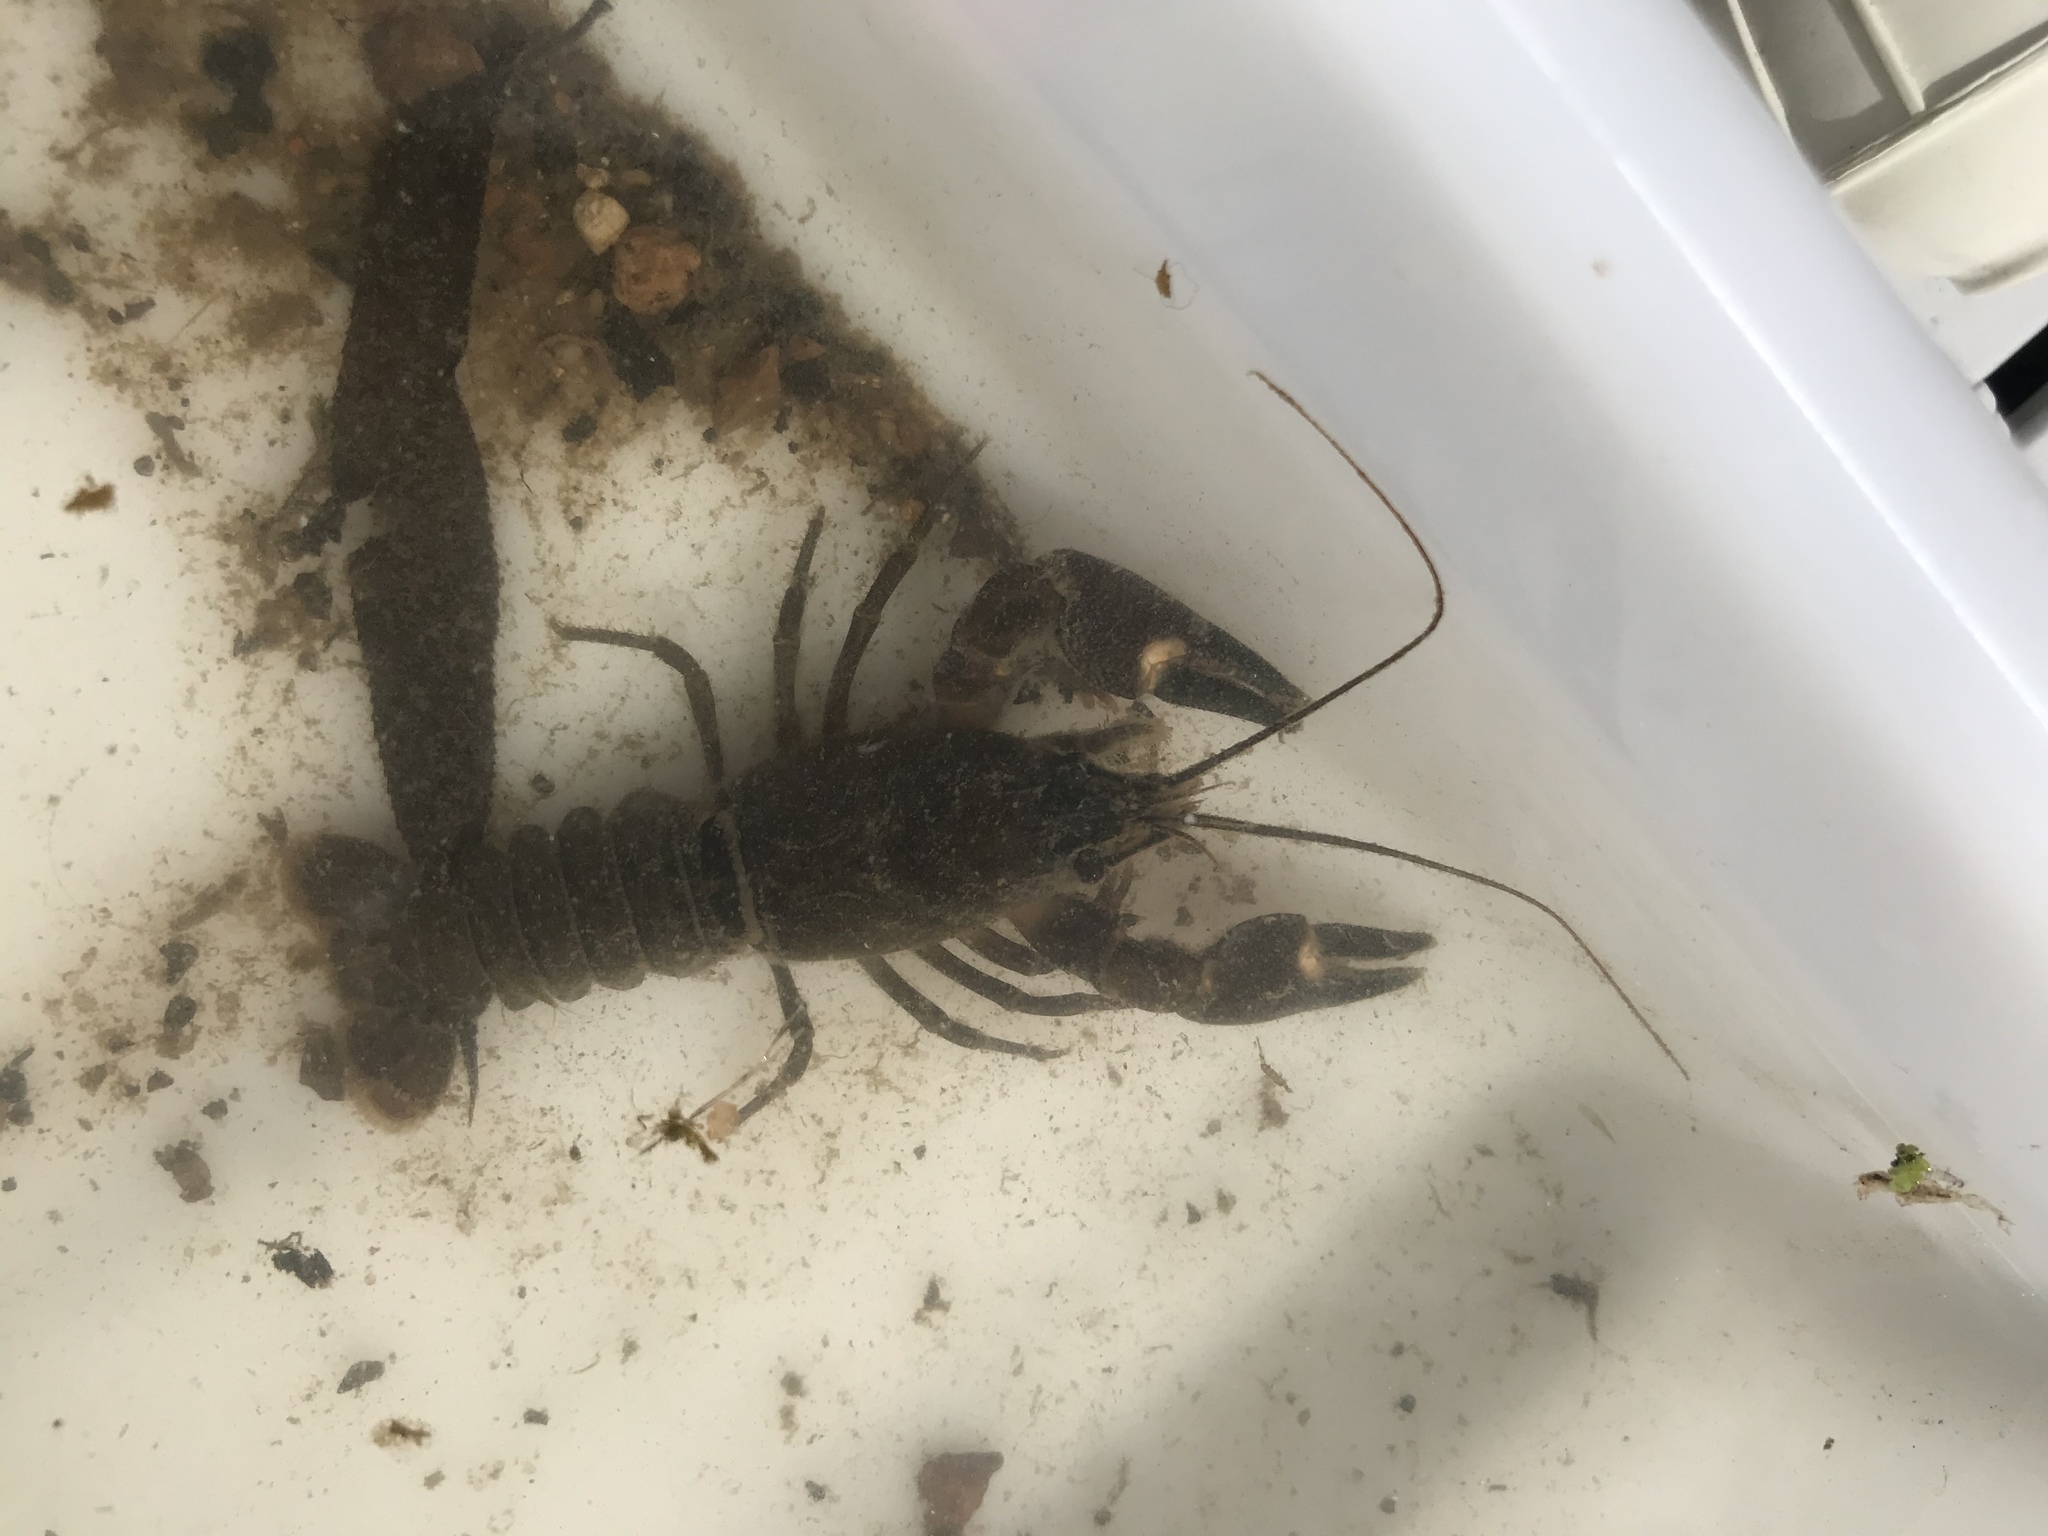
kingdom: Animalia
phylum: Arthropoda
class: Malacostraca
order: Decapoda
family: Astacidae
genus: Pacifastacus
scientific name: Pacifastacus leniusculus
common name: Signal crayfish
